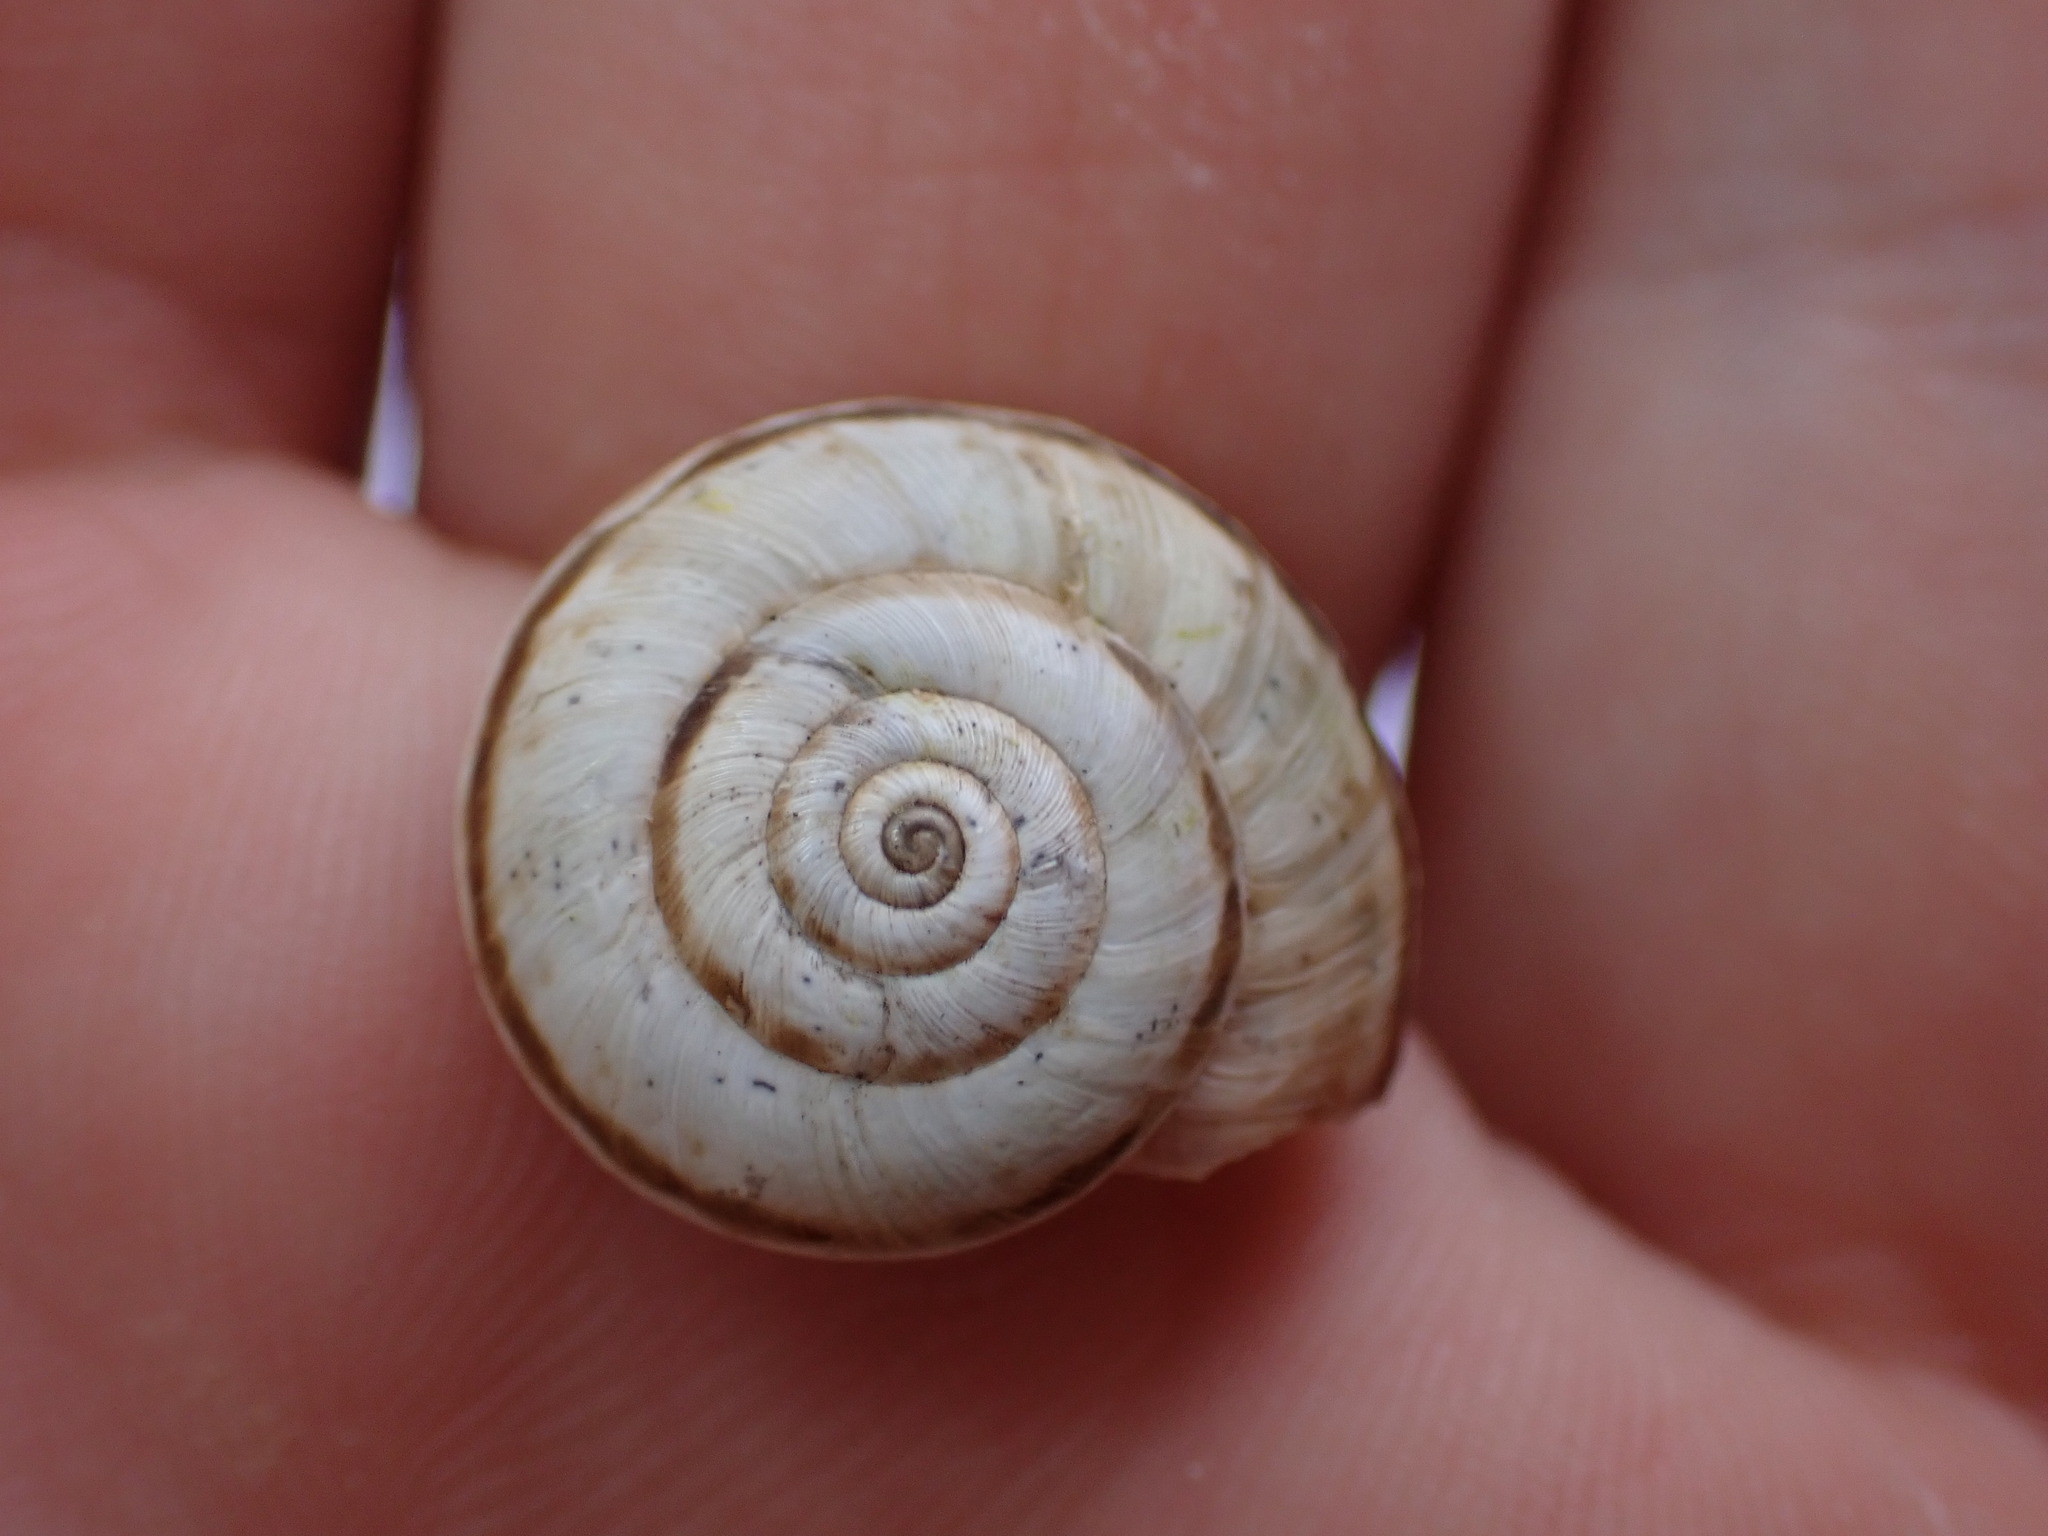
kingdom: Animalia
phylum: Mollusca
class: Gastropoda
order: Stylommatophora
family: Geomitridae
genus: Xerosecta
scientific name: Xerosecta cespitum
